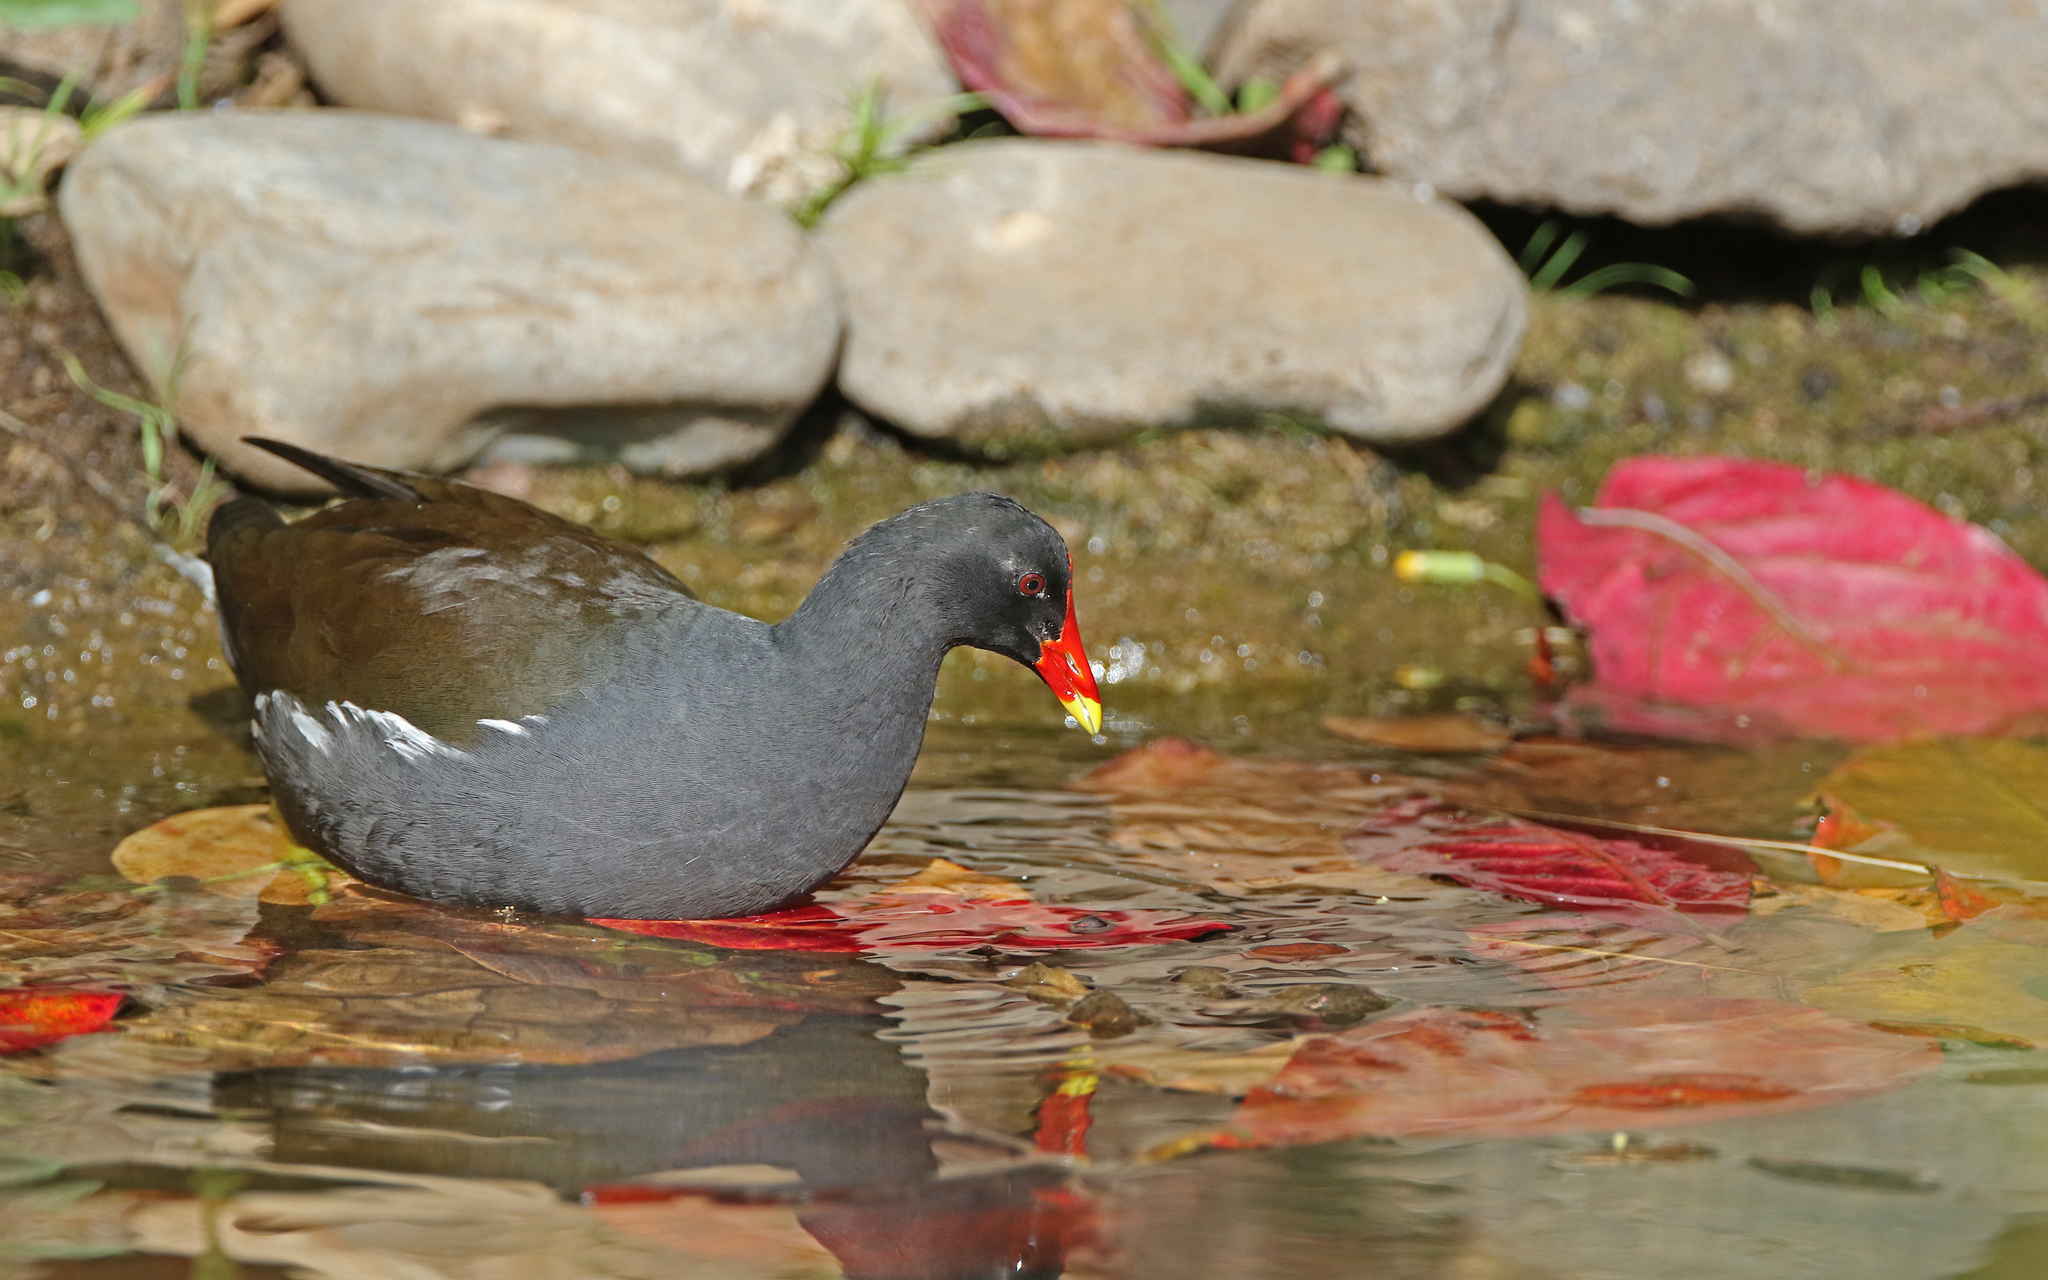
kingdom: Animalia
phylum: Chordata
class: Aves
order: Gruiformes
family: Rallidae
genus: Gallinula
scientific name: Gallinula chloropus
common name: Common moorhen
